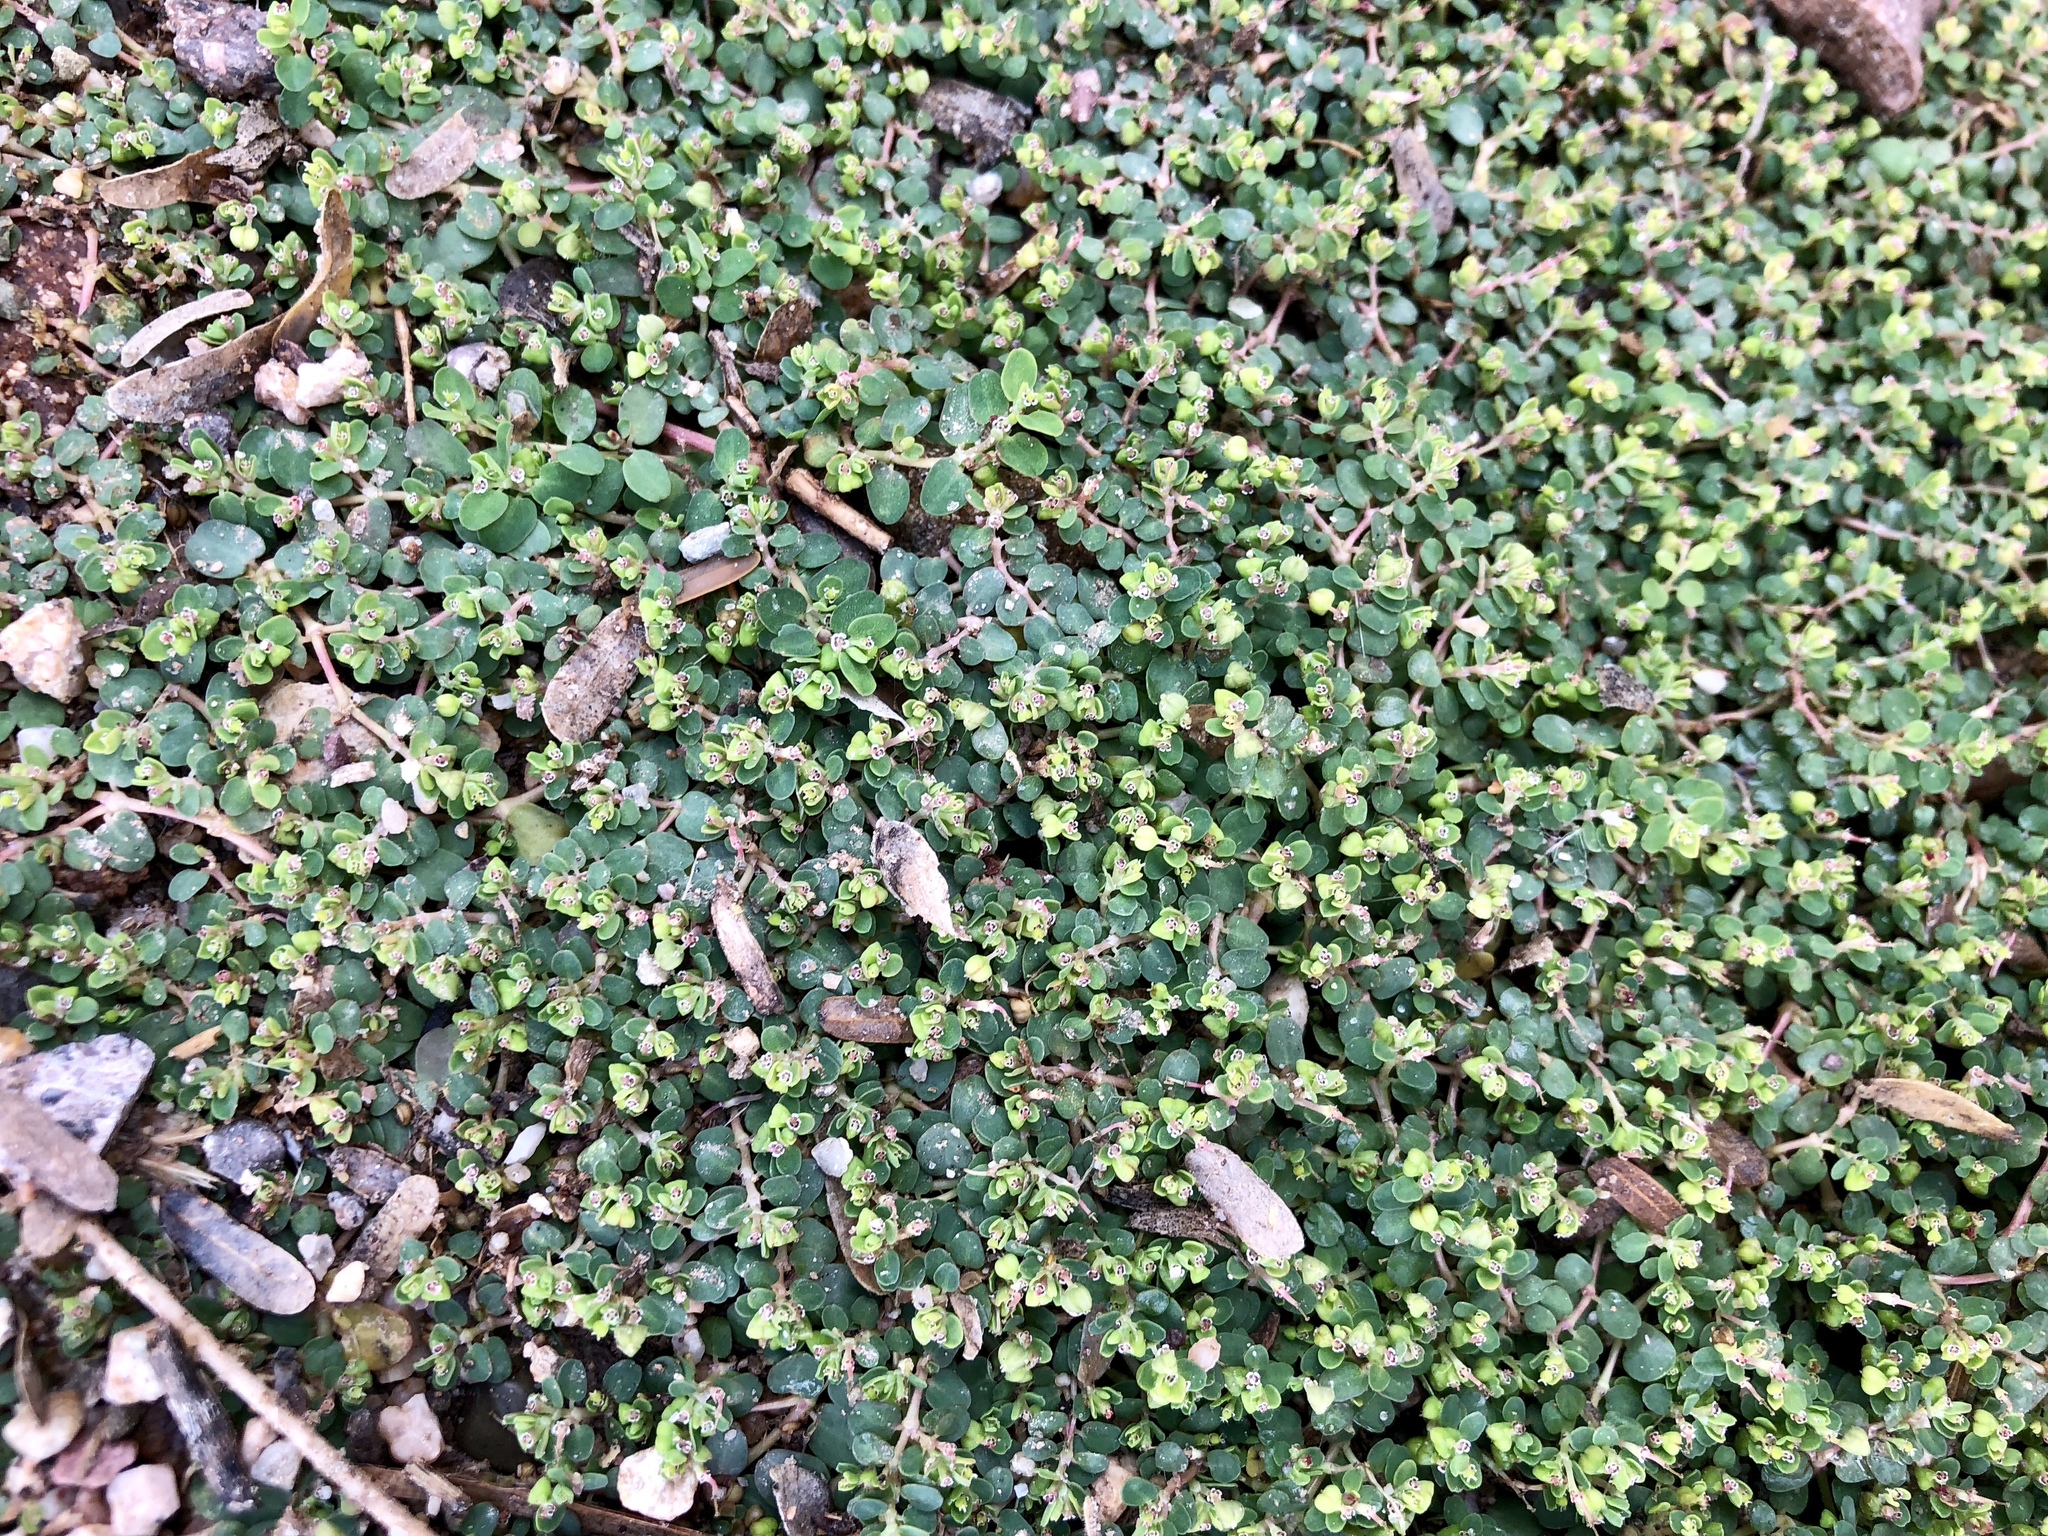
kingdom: Plantae
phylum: Tracheophyta
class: Magnoliopsida
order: Malpighiales
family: Euphorbiaceae
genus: Euphorbia
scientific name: Euphorbia serpens
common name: Matted sandmat
